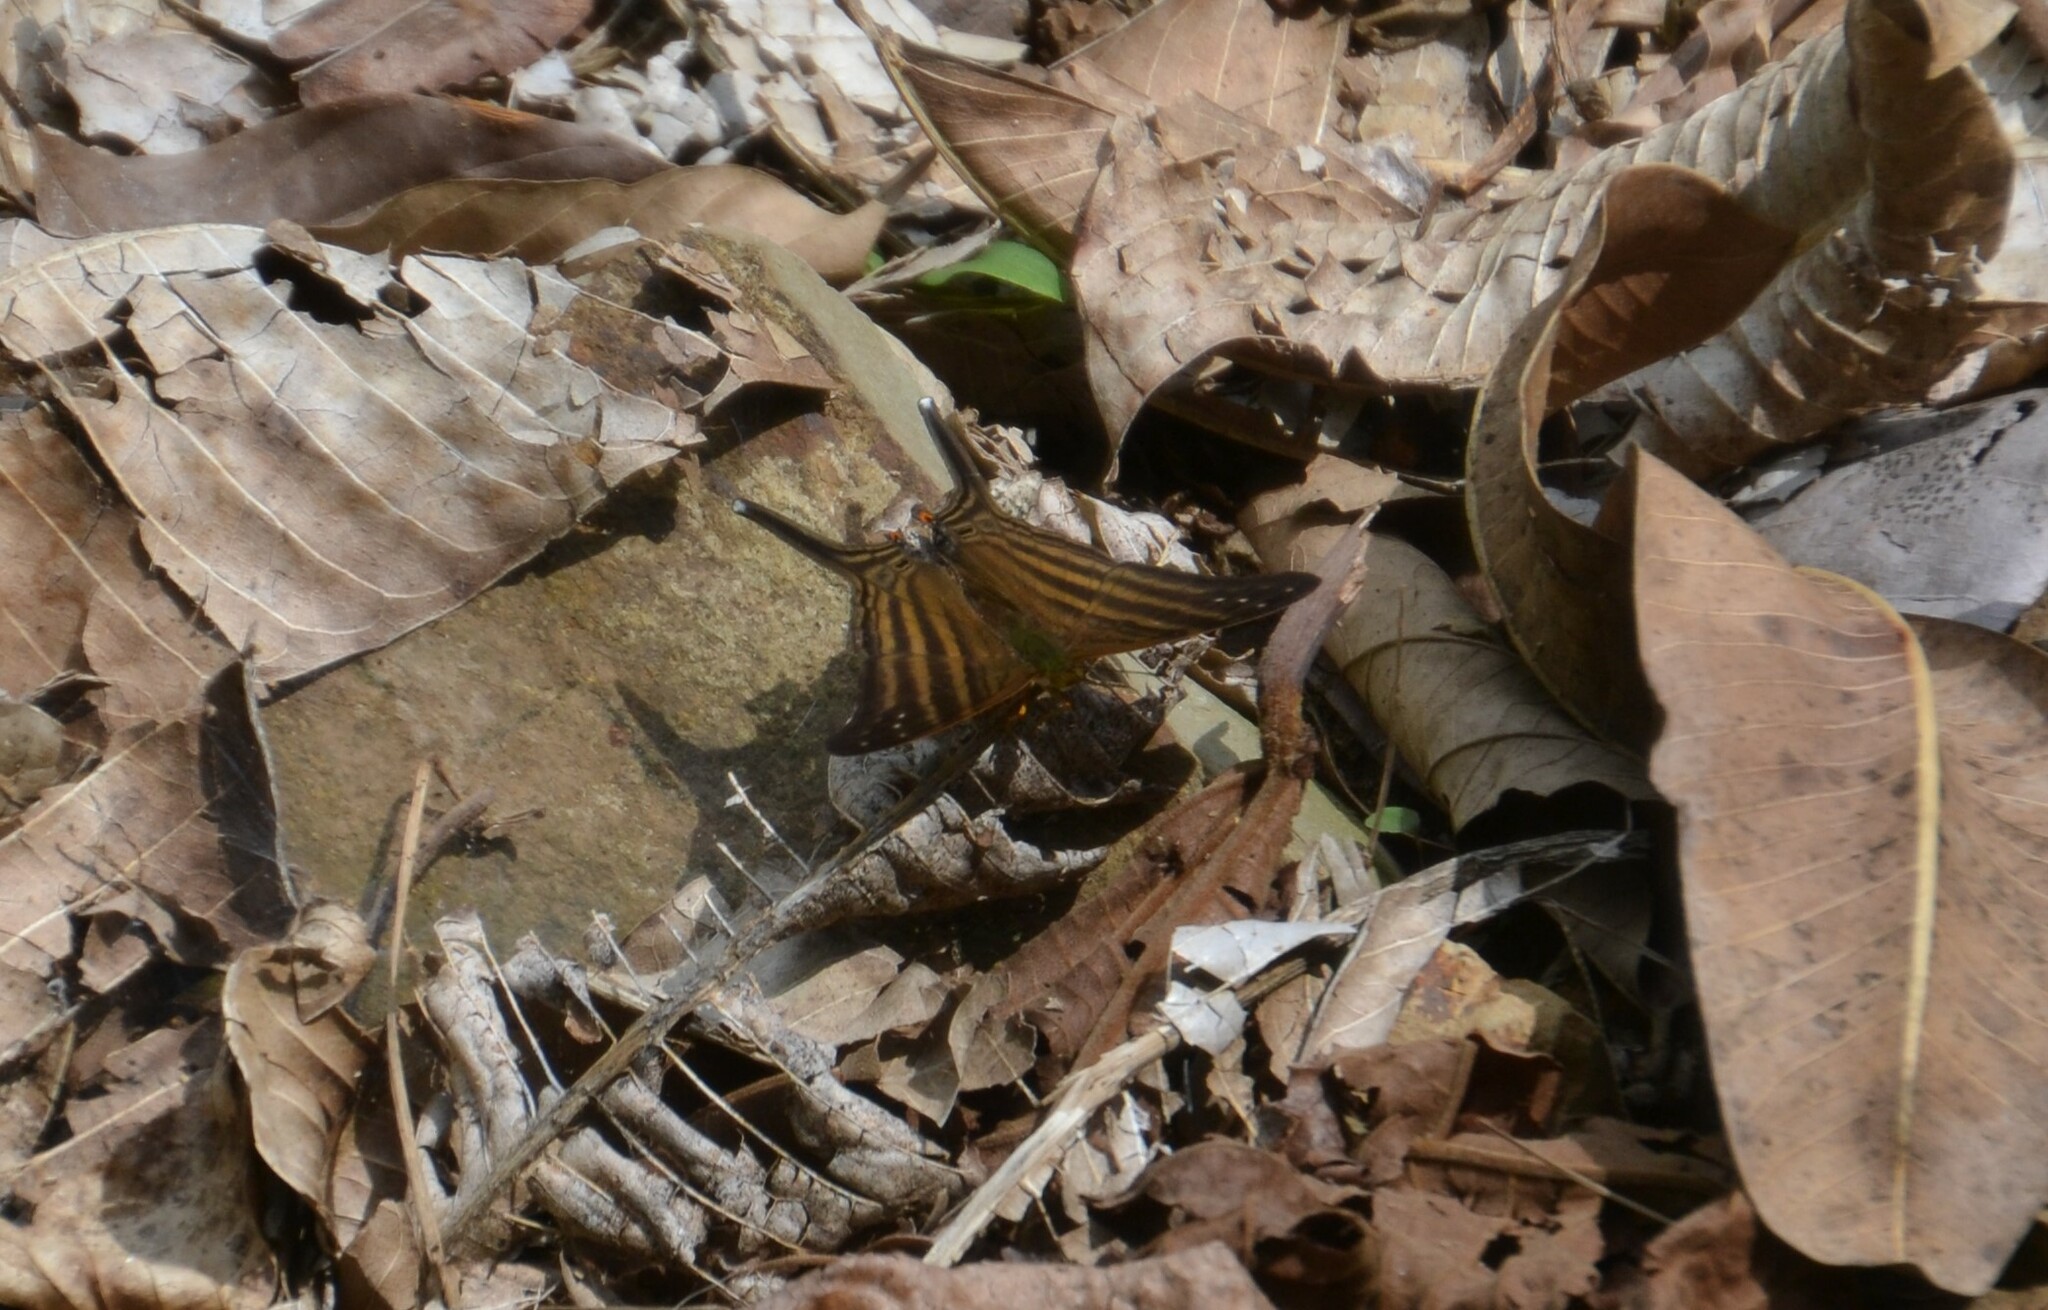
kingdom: Animalia
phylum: Arthropoda
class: Insecta
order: Lepidoptera
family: Nymphalidae
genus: Marpesia
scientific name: Marpesia chiron
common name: Many-banded daggerwing
